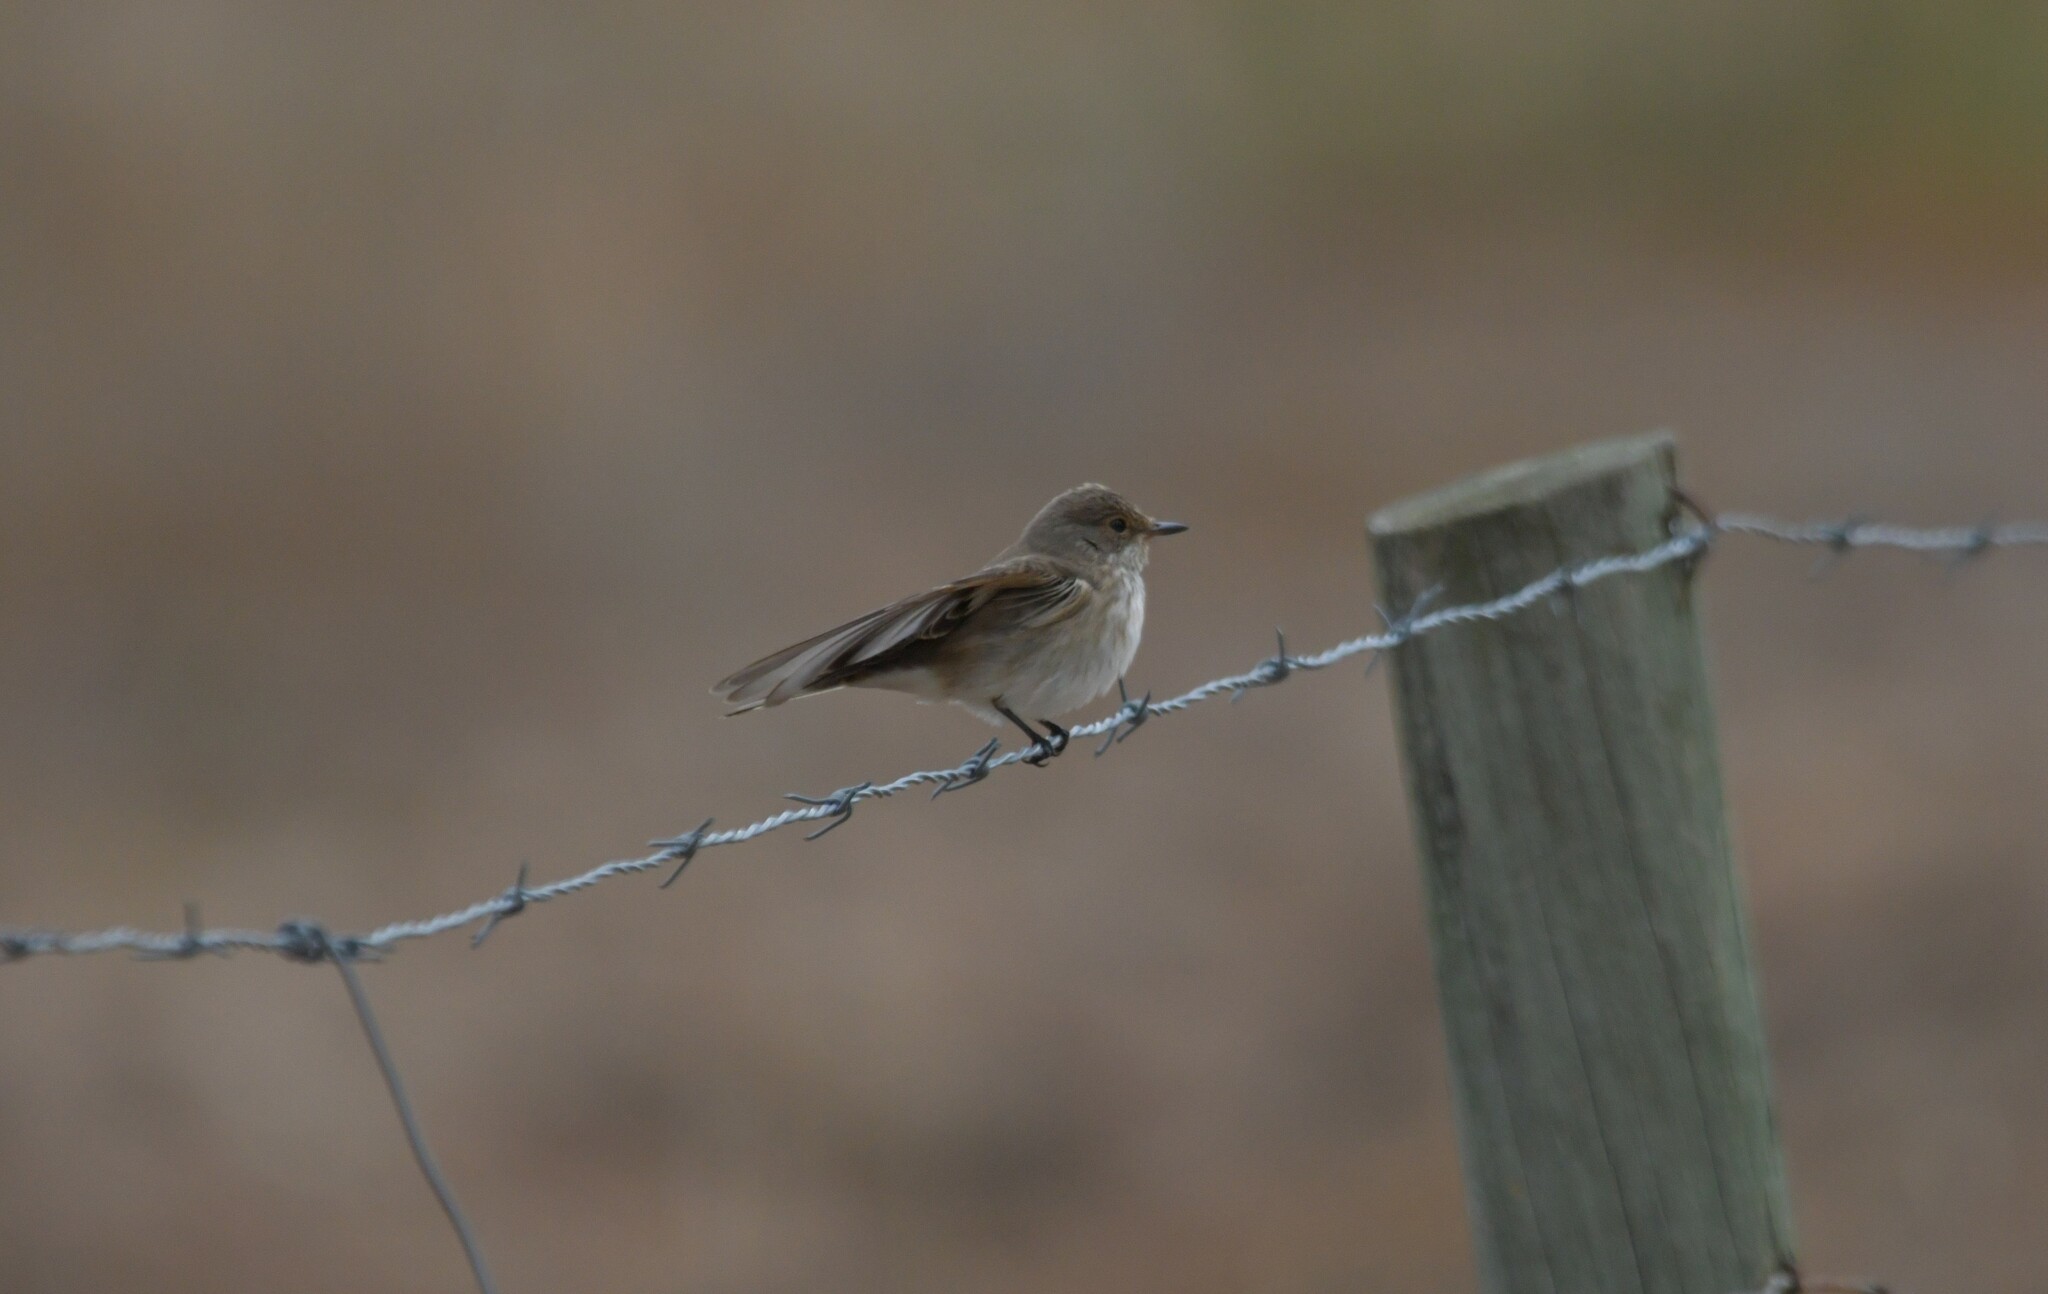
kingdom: Animalia
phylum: Chordata
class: Aves
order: Passeriformes
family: Muscicapidae
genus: Muscicapa
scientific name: Muscicapa striata
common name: Spotted flycatcher
